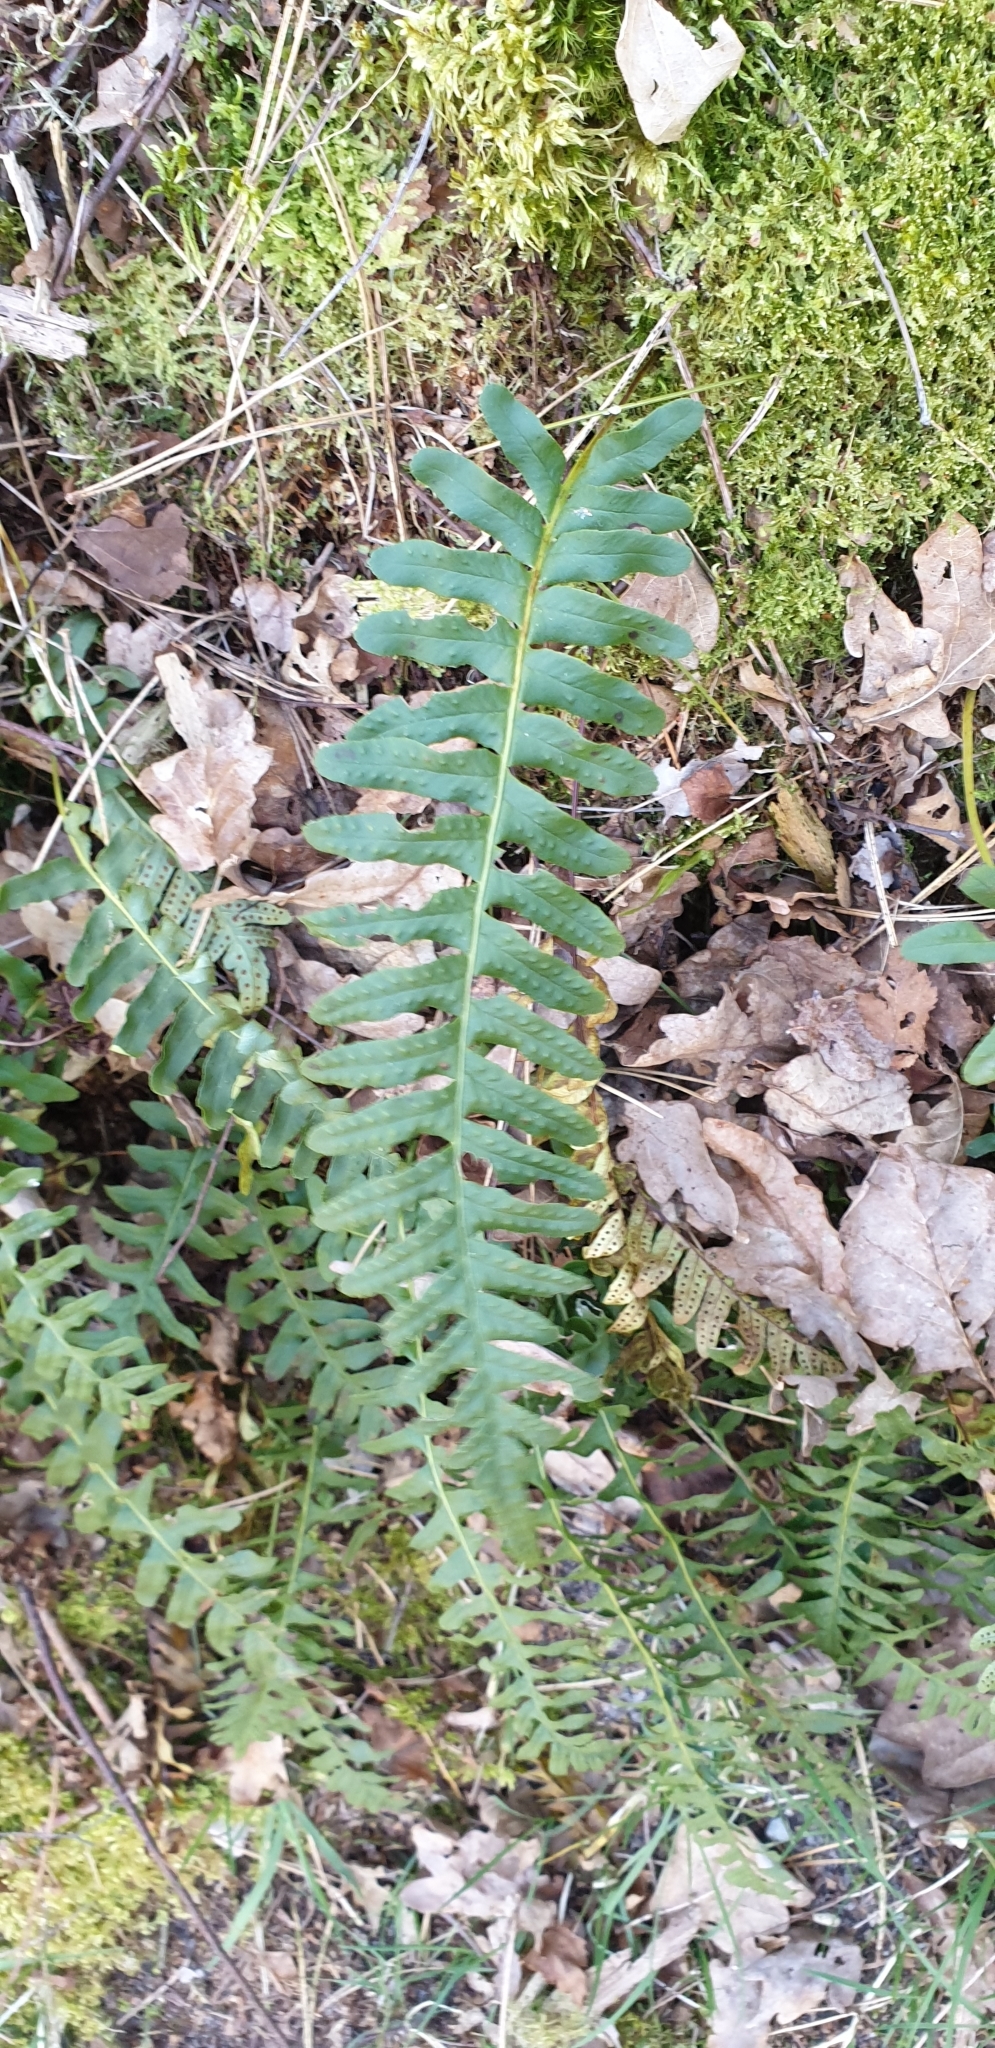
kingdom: Plantae
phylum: Tracheophyta
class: Polypodiopsida
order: Polypodiales
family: Polypodiaceae
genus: Polypodium
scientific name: Polypodium vulgare
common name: Common polypody
